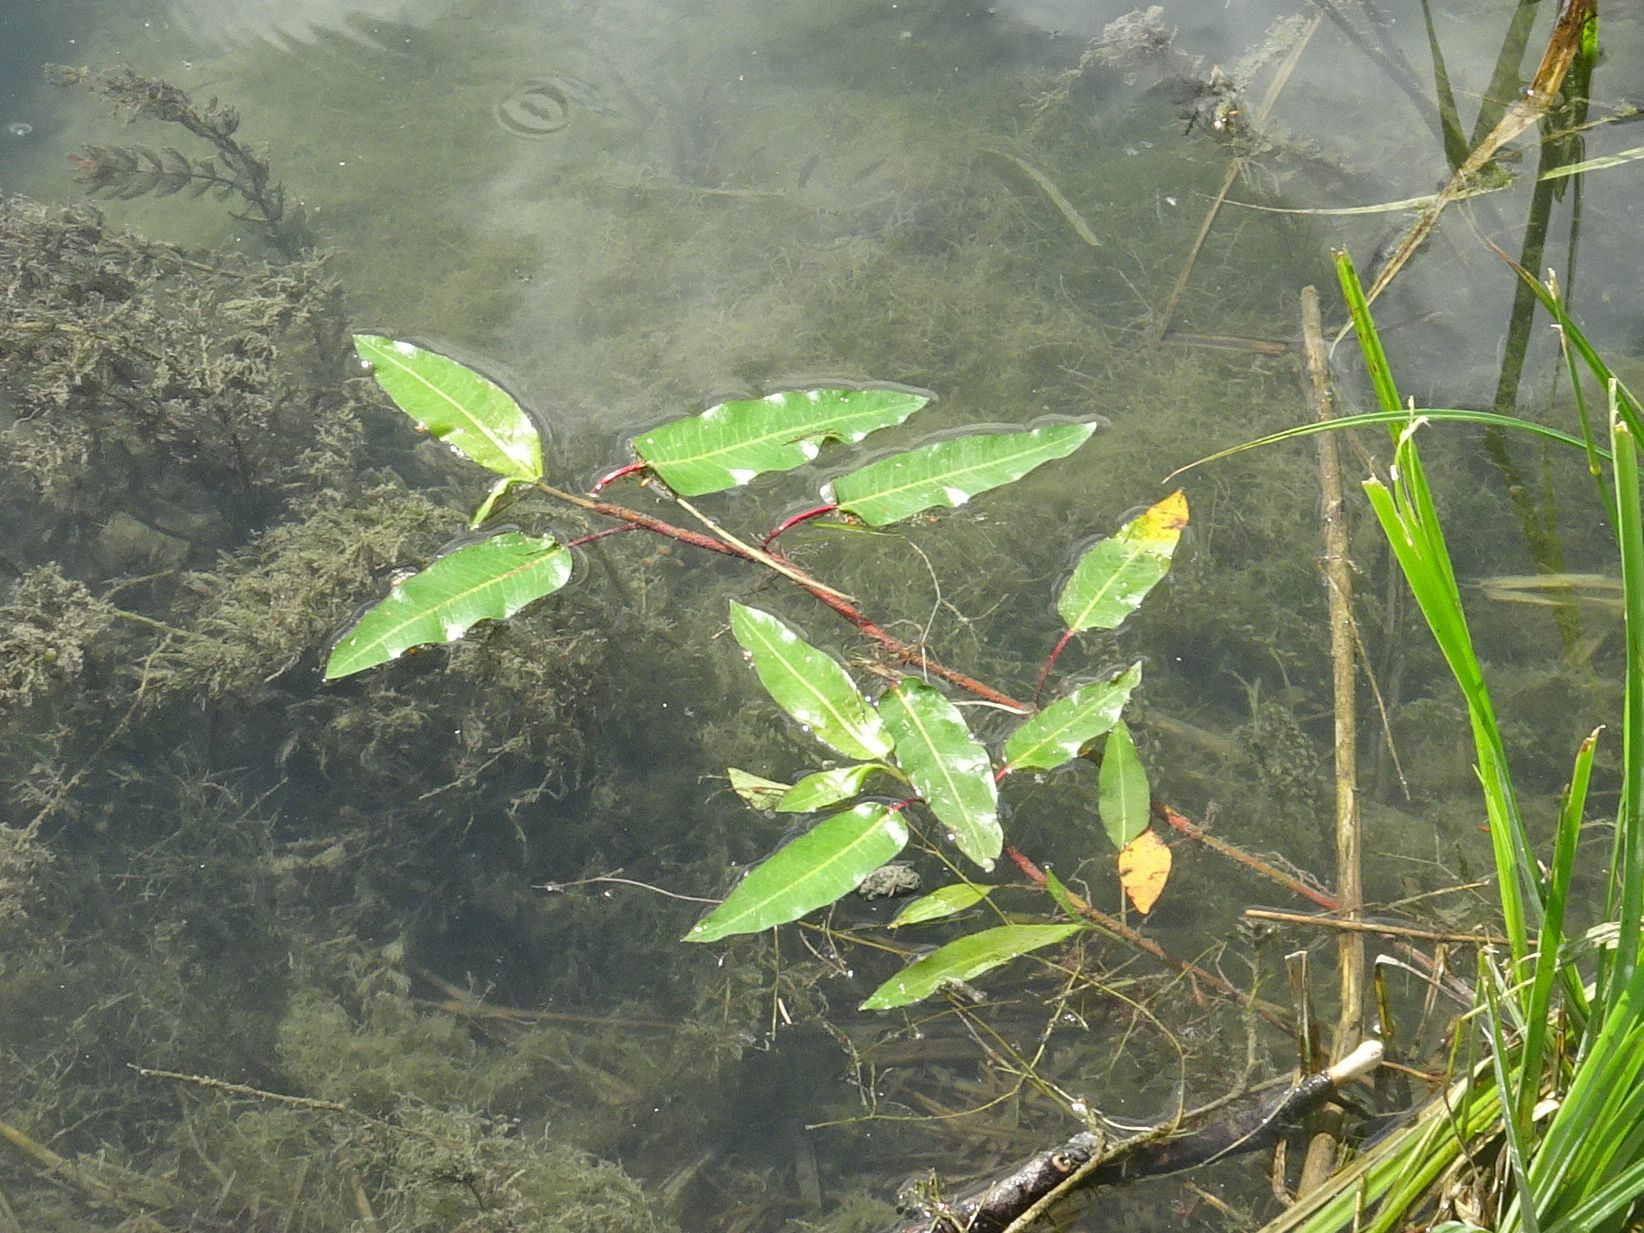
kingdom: Plantae
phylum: Tracheophyta
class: Magnoliopsida
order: Caryophyllales
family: Polygonaceae
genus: Persicaria
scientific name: Persicaria amphibia
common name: Amphibious bistort
